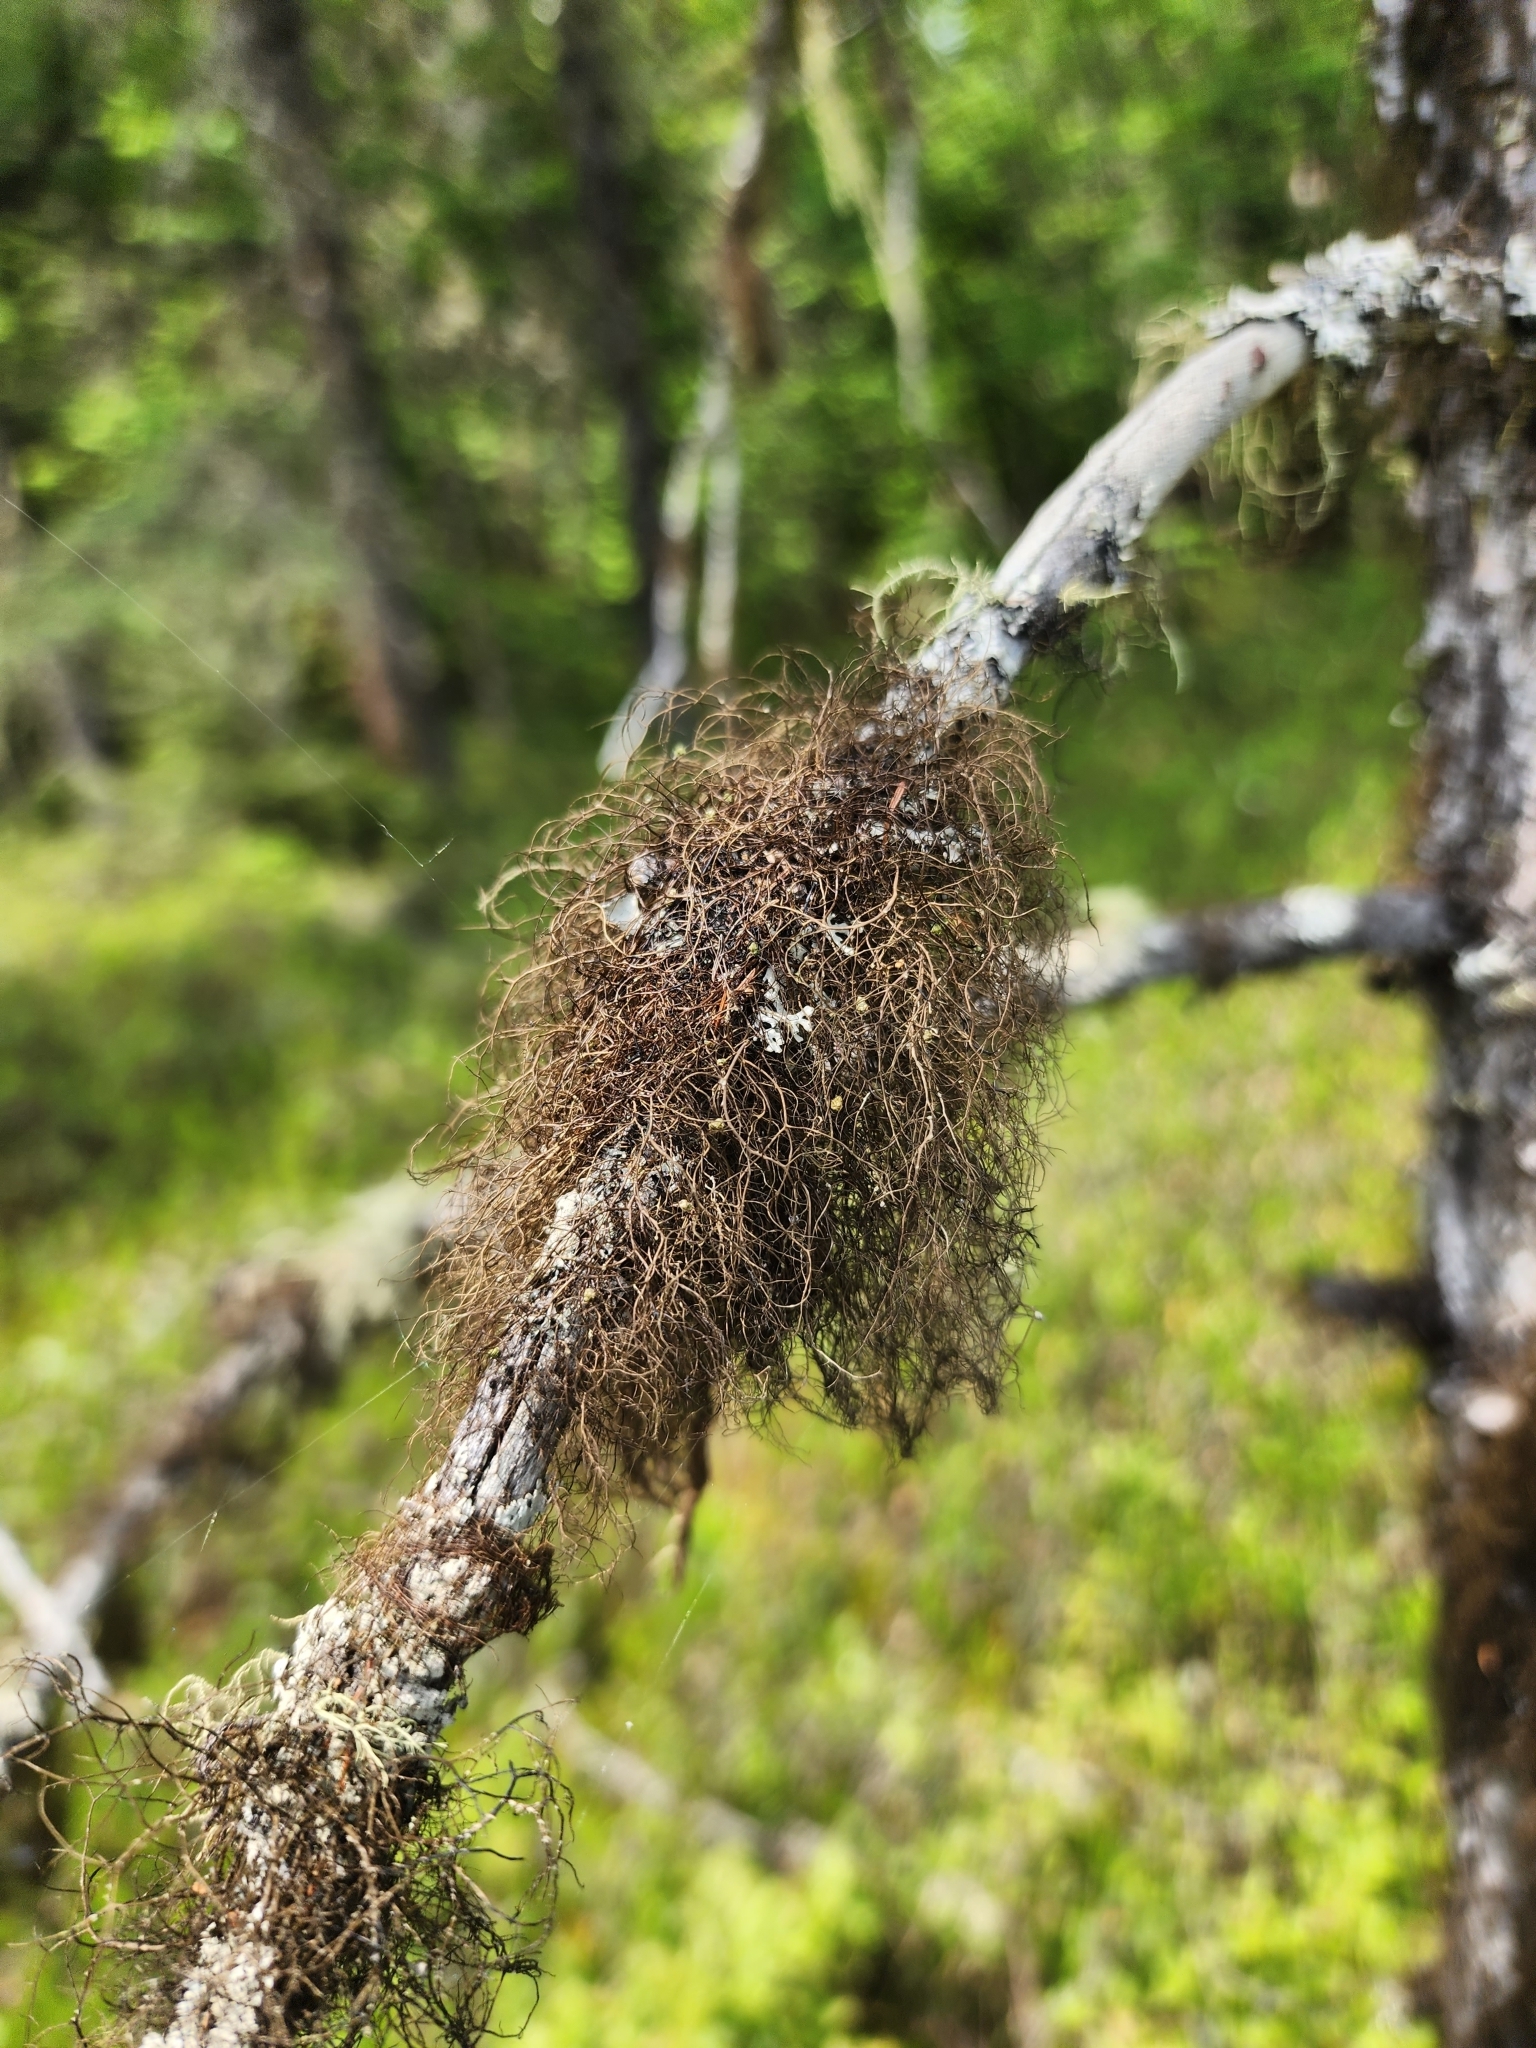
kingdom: Fungi
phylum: Ascomycota
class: Lecanoromycetes
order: Lecanorales
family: Parmeliaceae
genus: Bryoria
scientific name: Bryoria furcellata
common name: Forked hair-lichen
